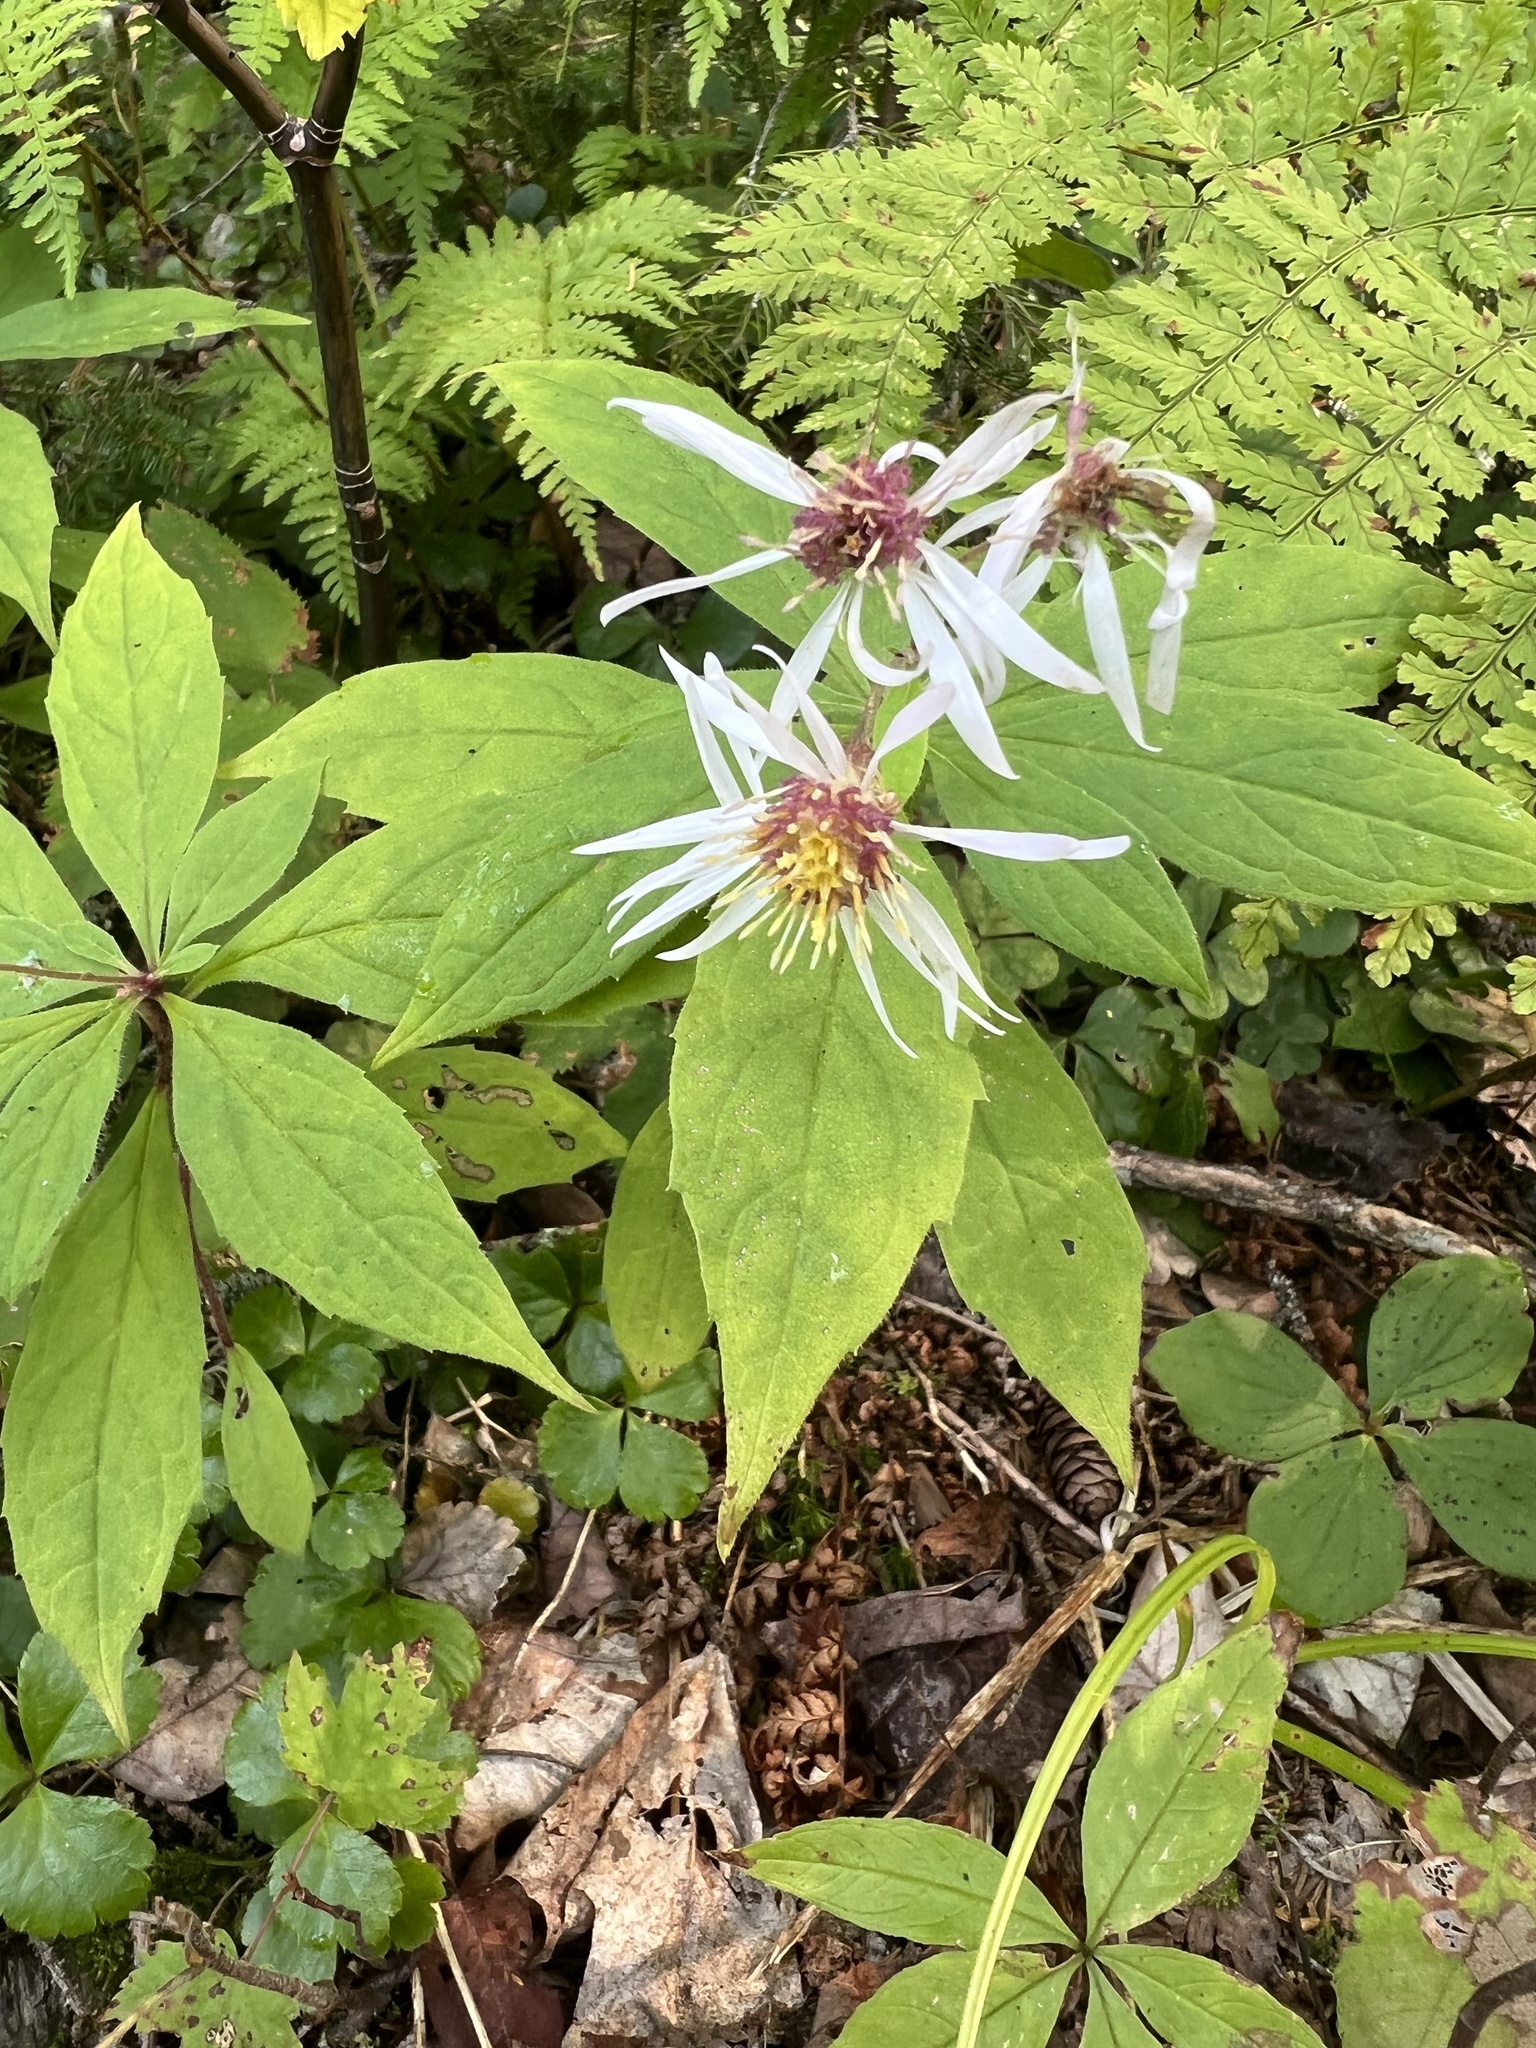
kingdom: Plantae
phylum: Tracheophyta
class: Magnoliopsida
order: Asterales
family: Asteraceae
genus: Oclemena
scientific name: Oclemena acuminata
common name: Mountain aster
